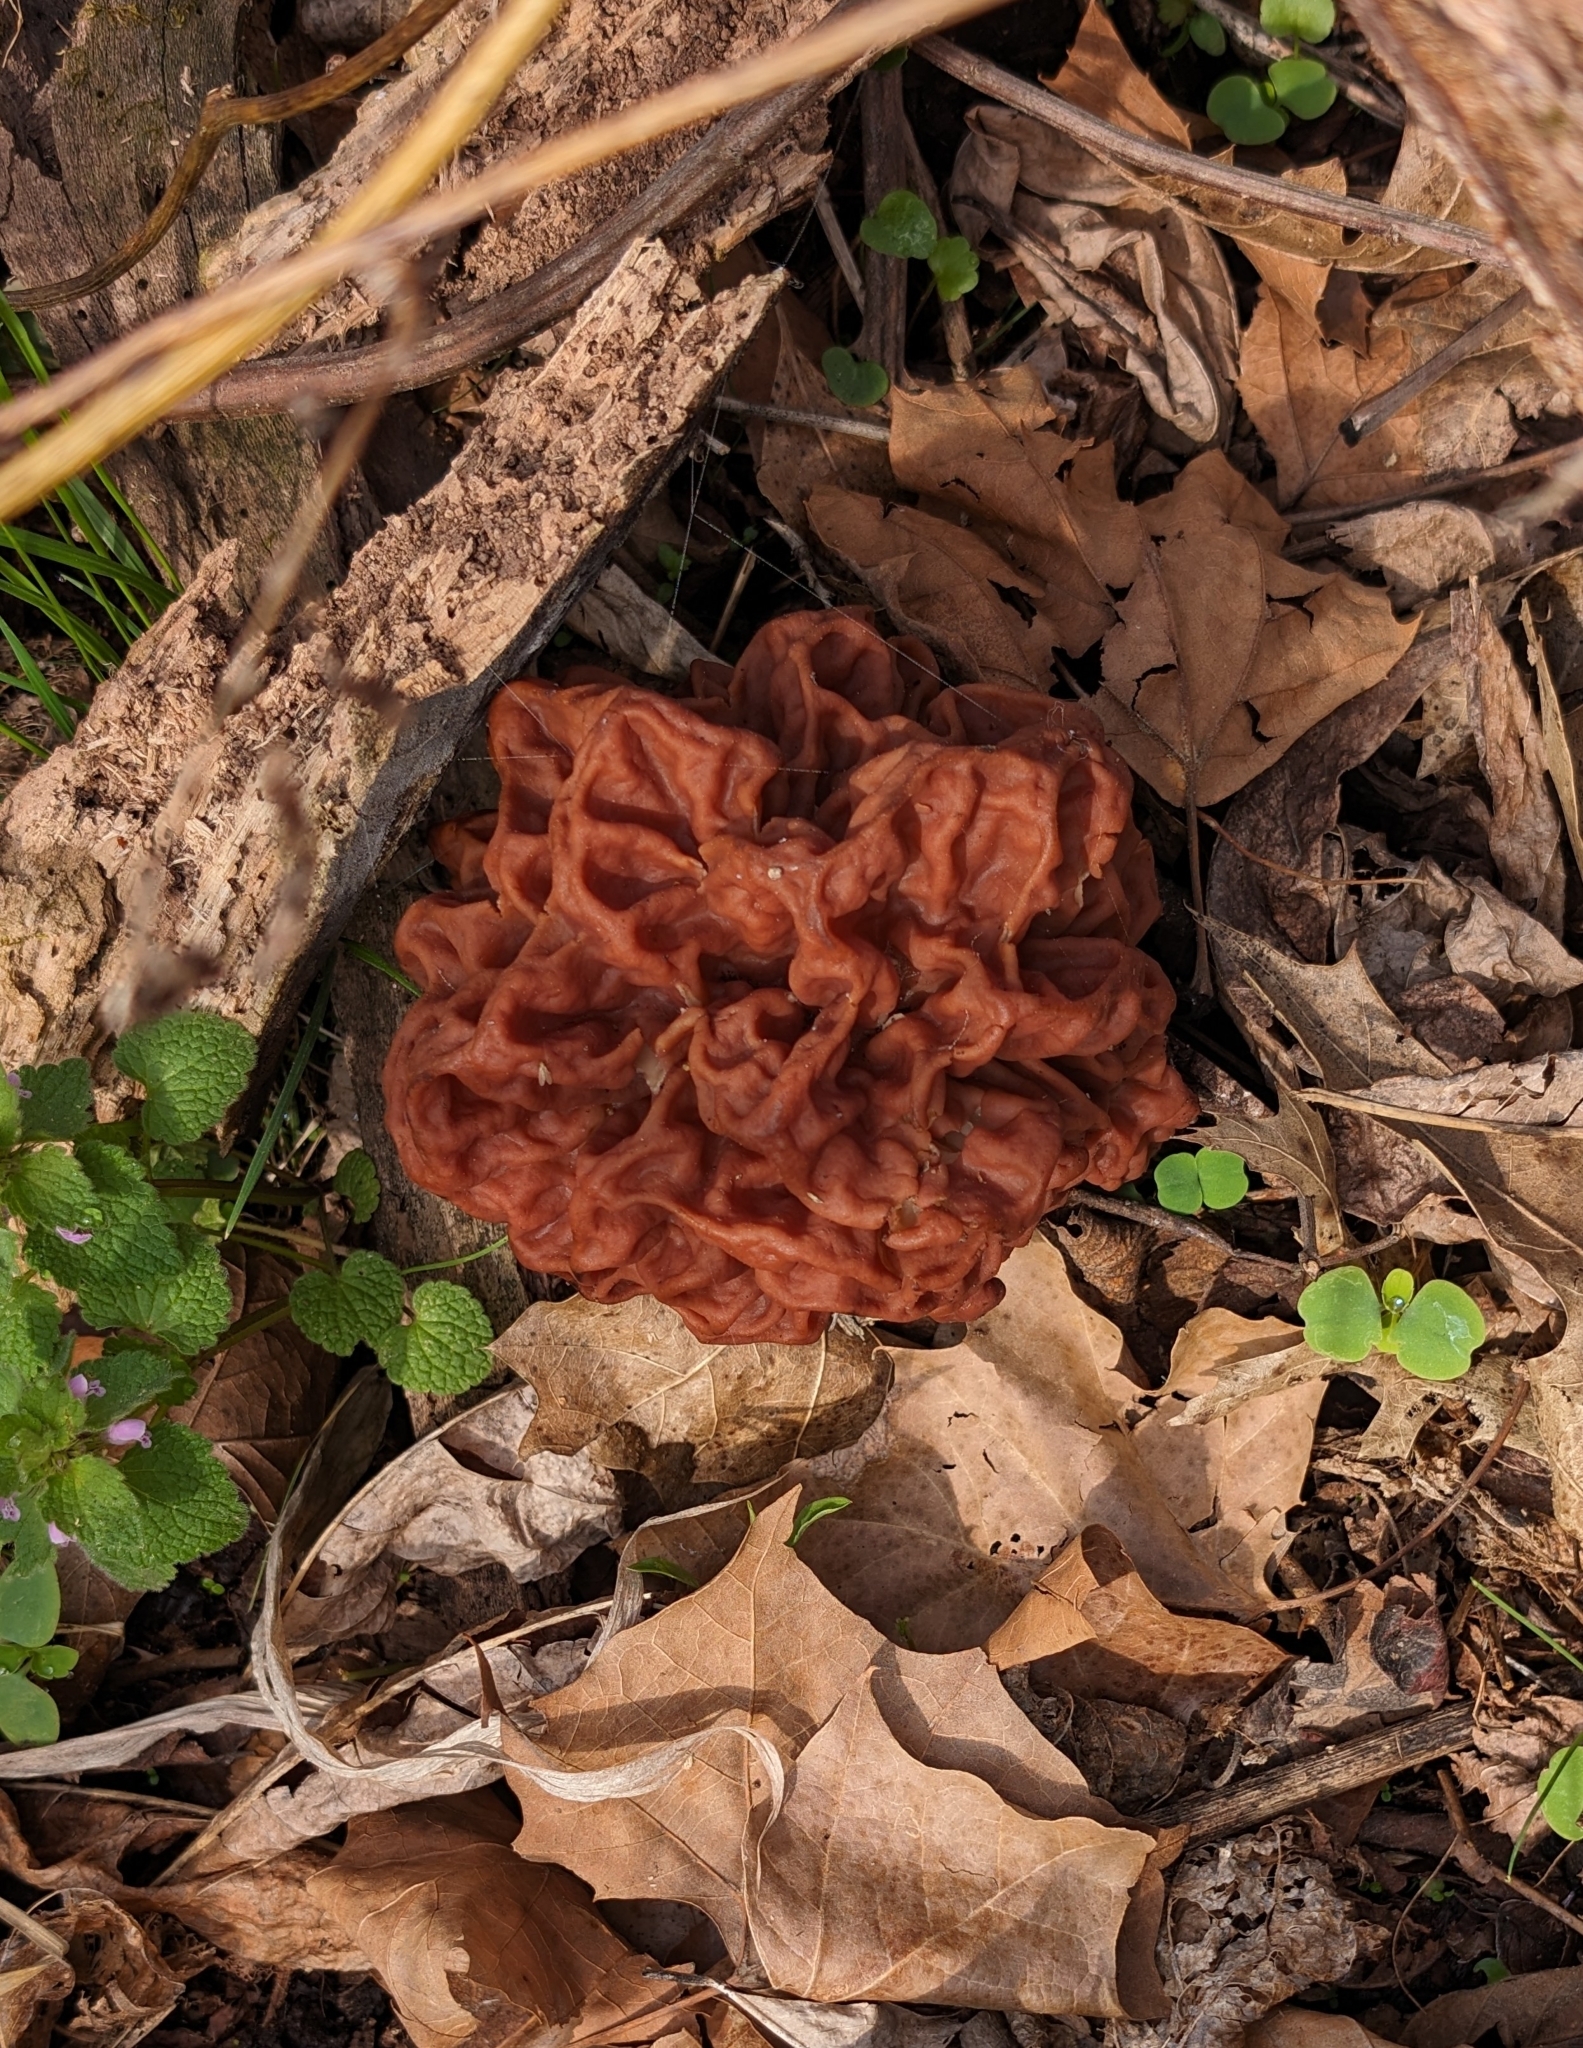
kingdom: Fungi
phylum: Ascomycota
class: Pezizomycetes
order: Pezizales
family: Discinaceae
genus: Discina
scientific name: Discina caroliniana
